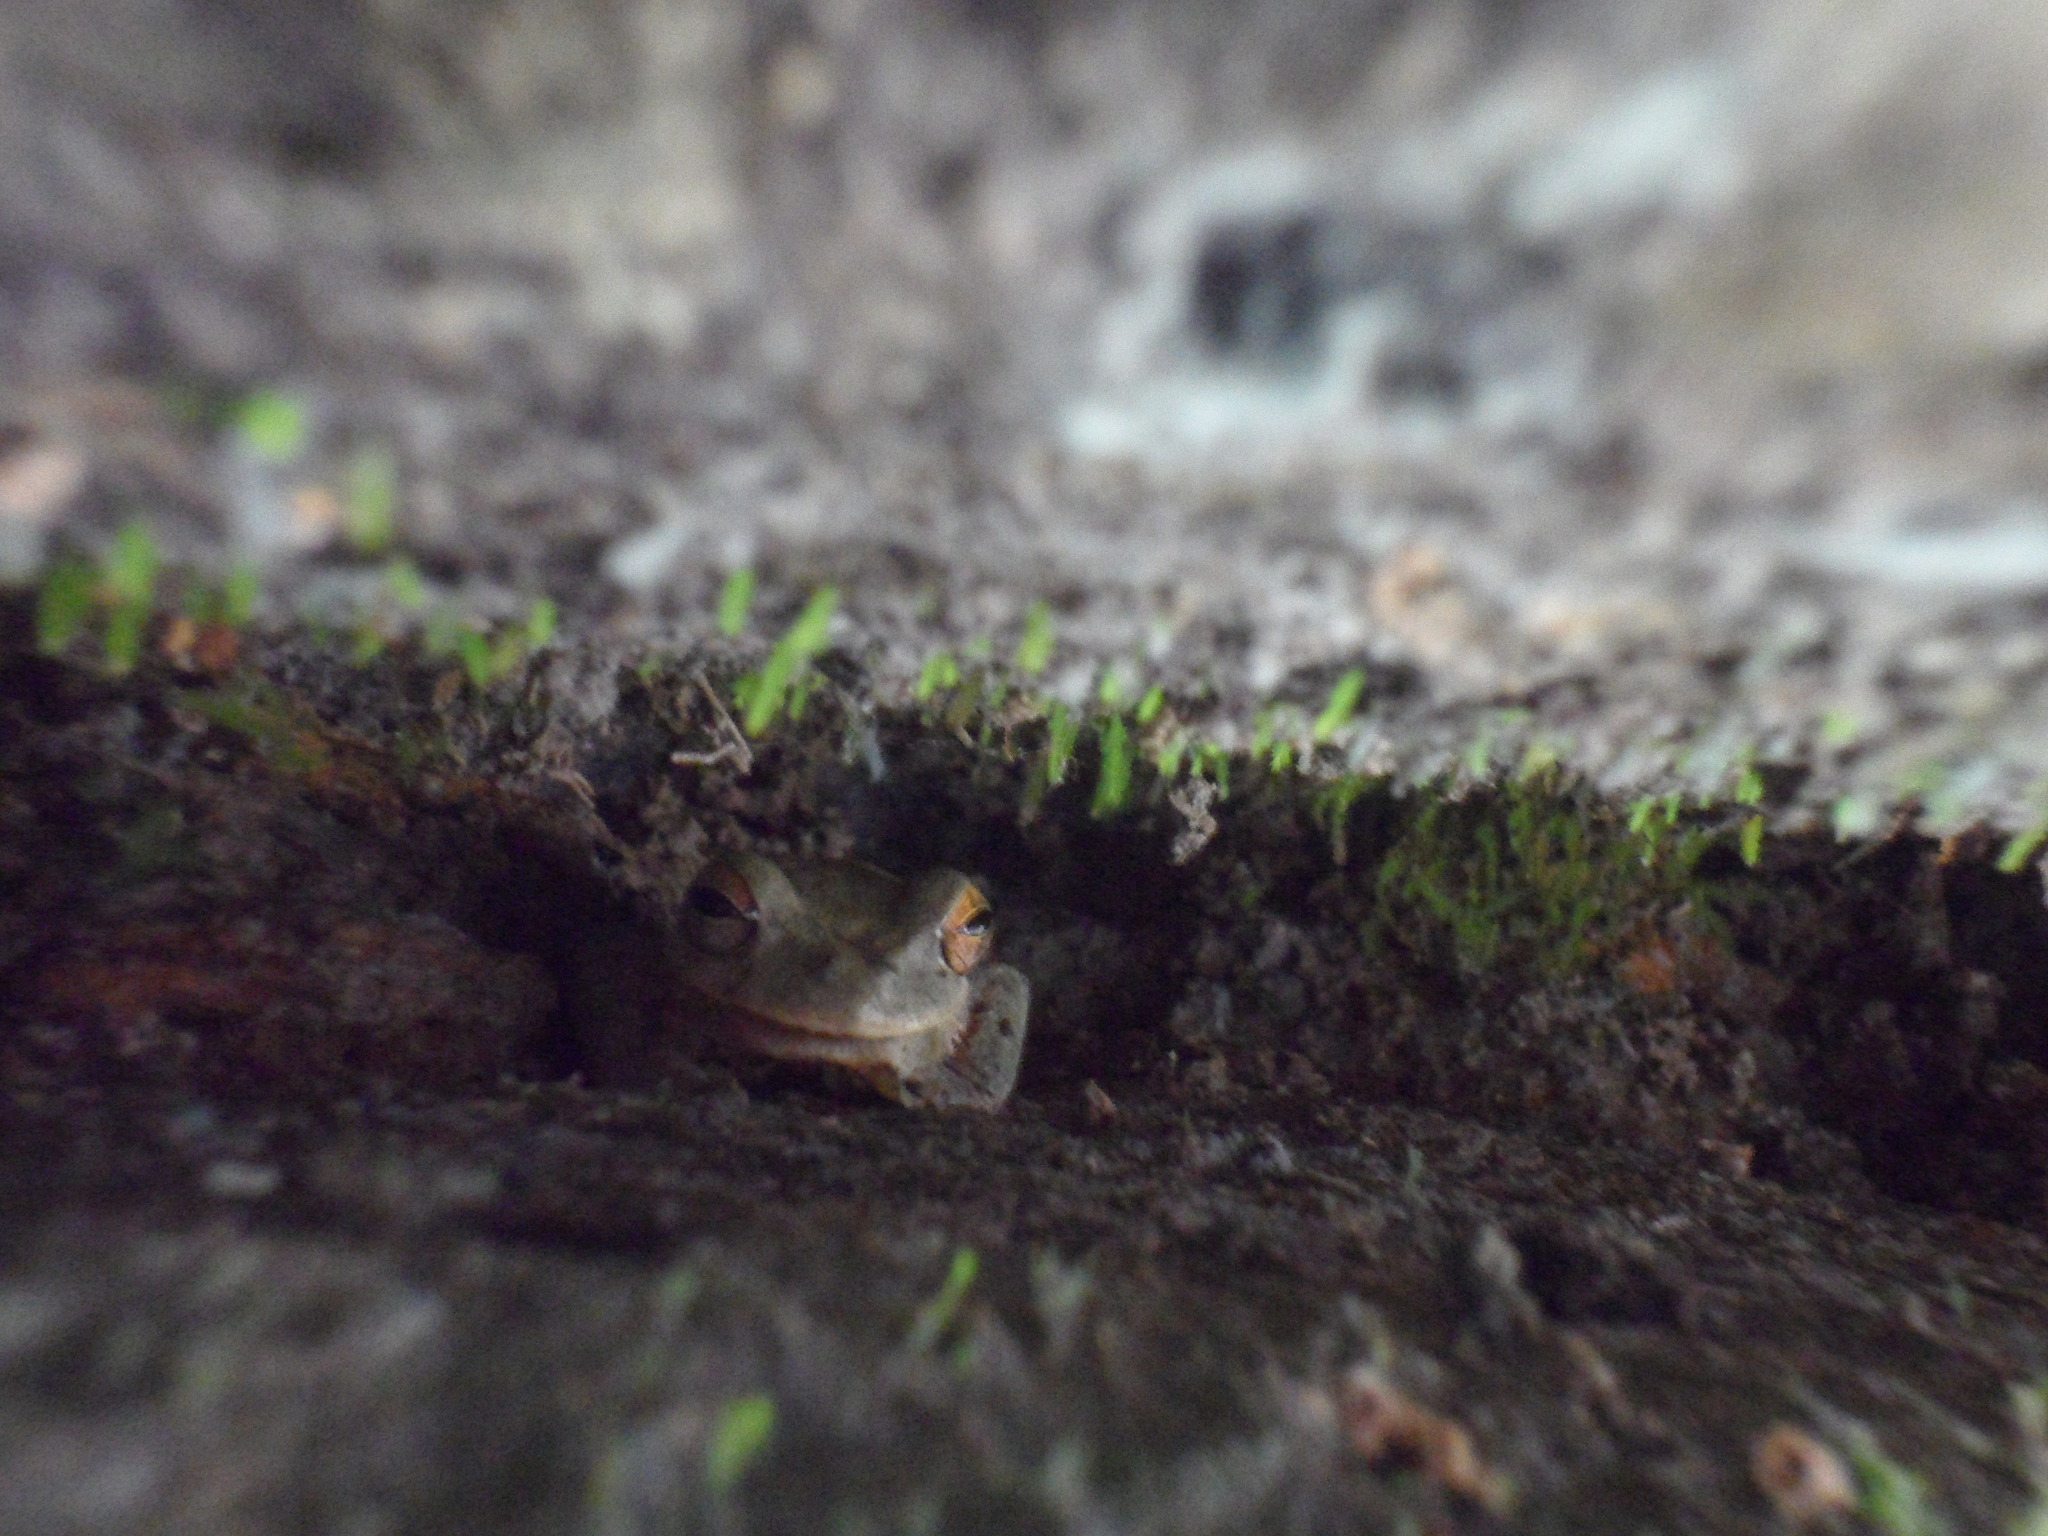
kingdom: Animalia
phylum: Chordata
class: Amphibia
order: Anura
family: Hylidae
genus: Rheohyla
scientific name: Rheohyla miotympanum
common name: Small-eard hyla
